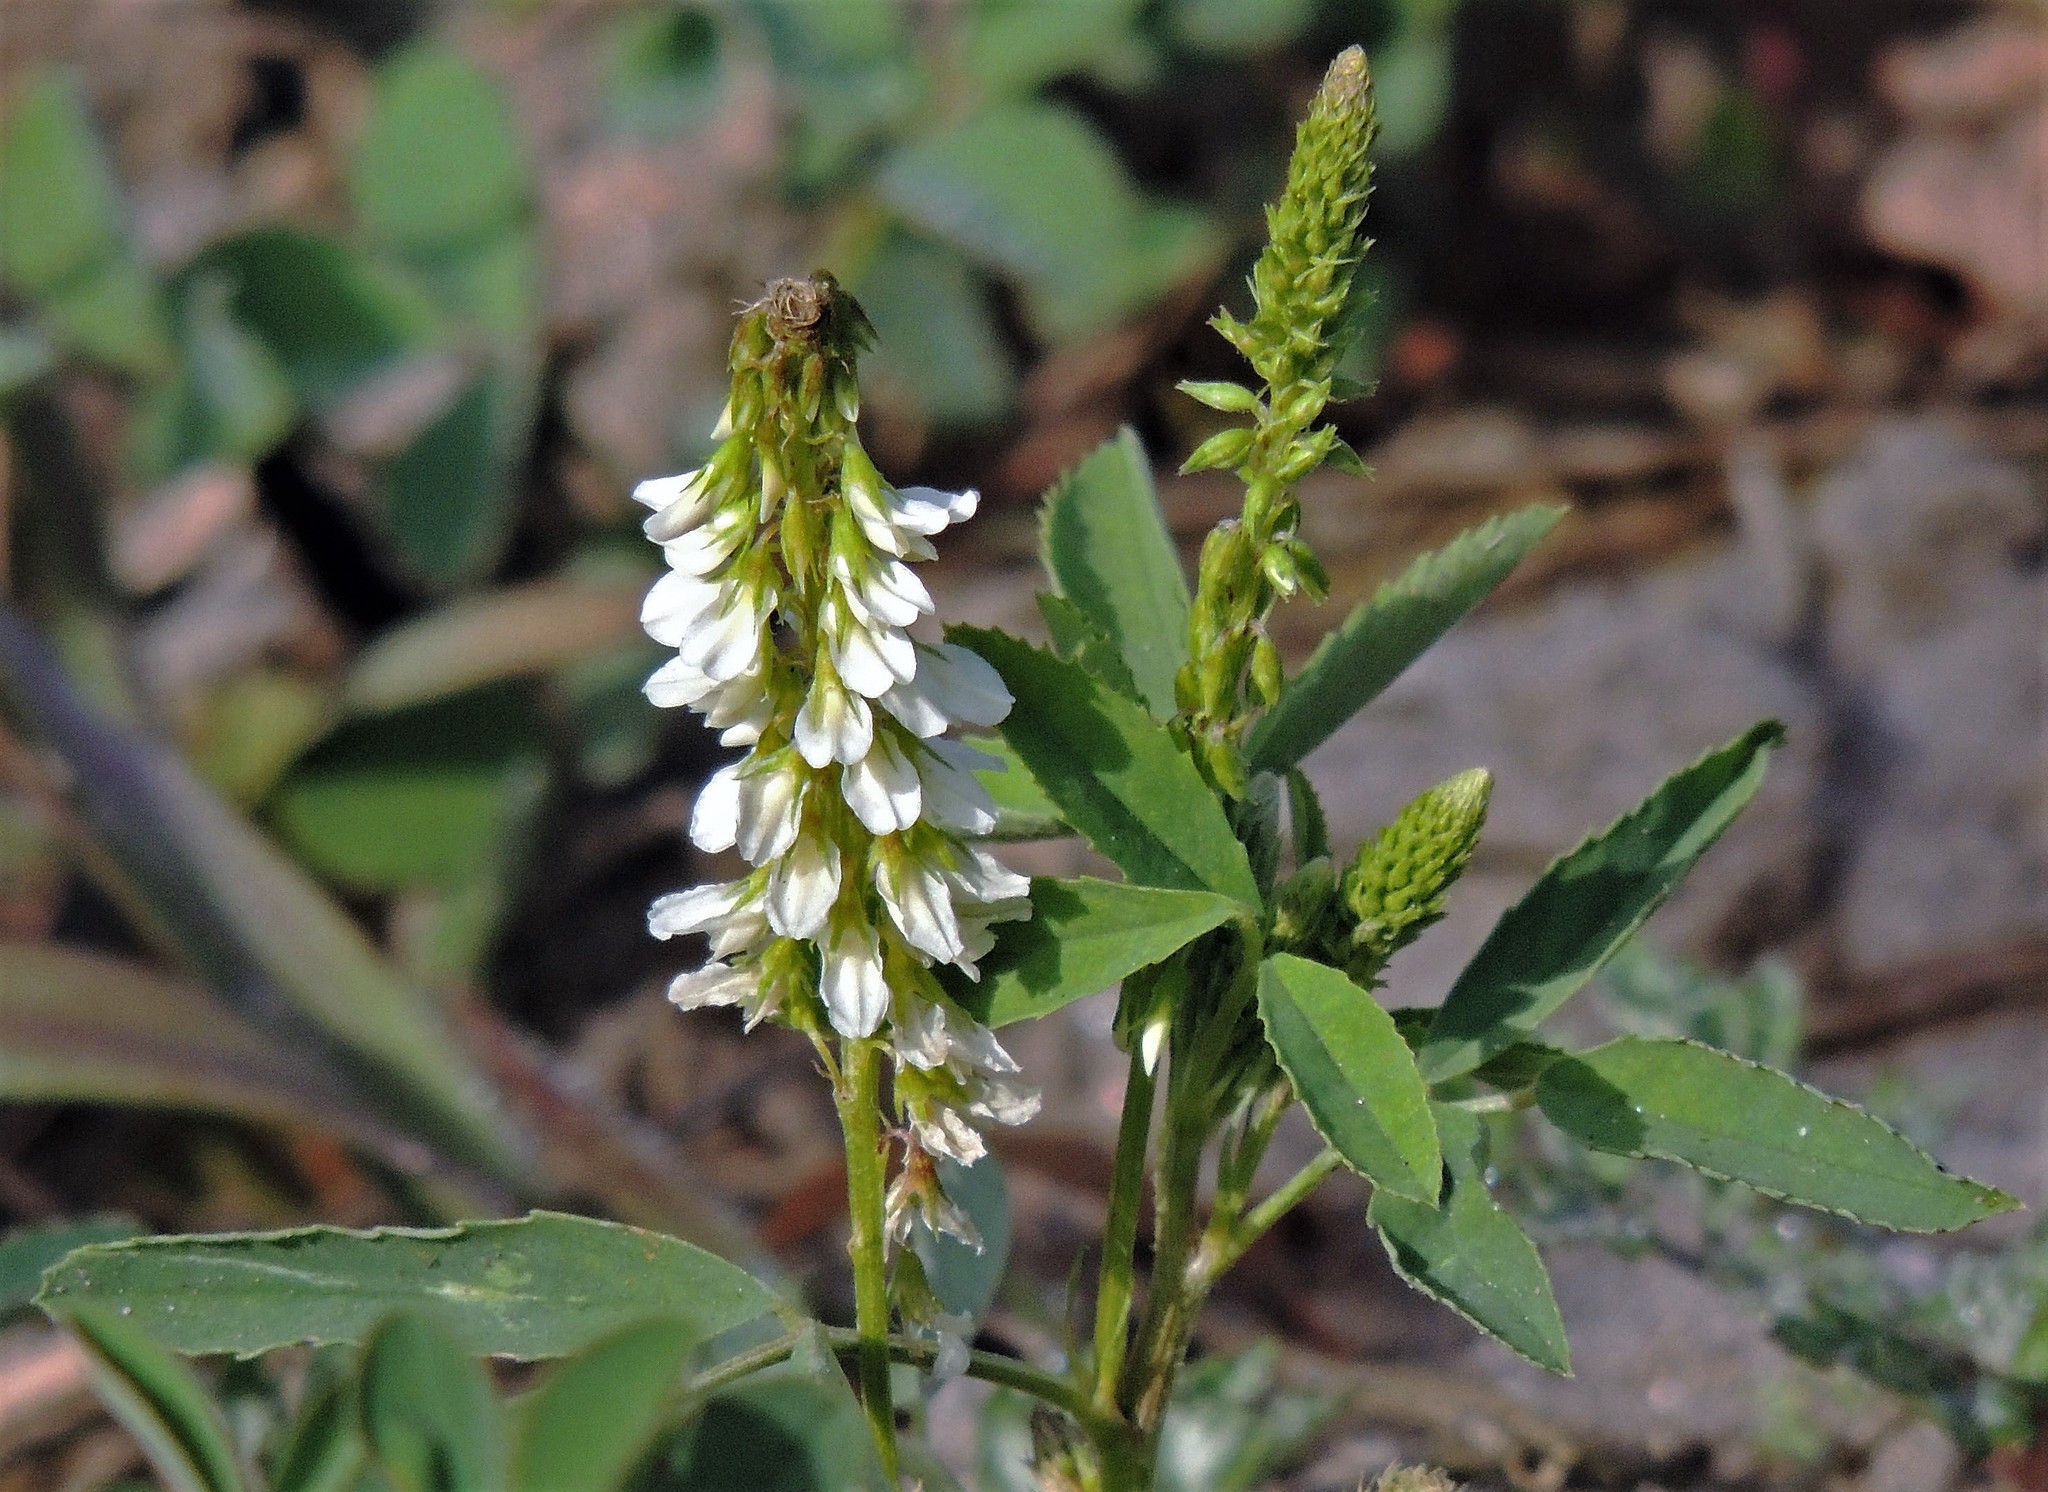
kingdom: Plantae
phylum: Tracheophyta
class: Magnoliopsida
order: Fabales
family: Fabaceae
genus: Melilotus
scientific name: Melilotus albus
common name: White melilot
